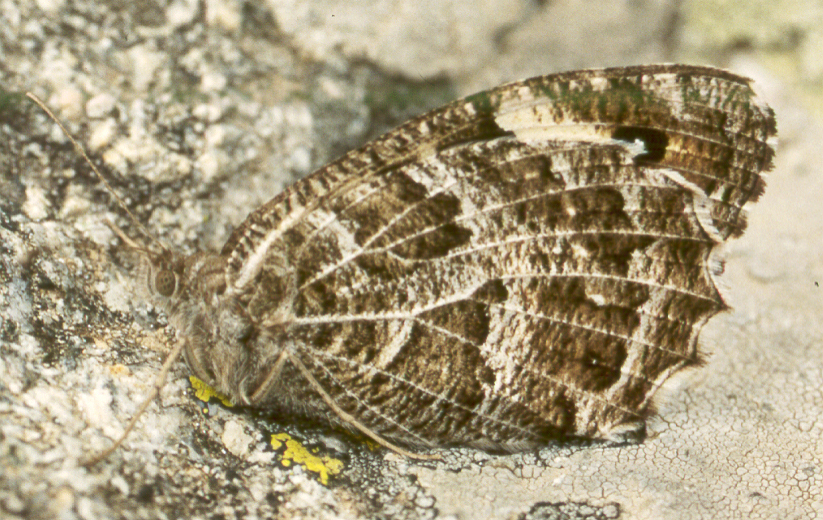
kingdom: Animalia
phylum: Arthropoda
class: Insecta
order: Lepidoptera
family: Nymphalidae
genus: Satyrus
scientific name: Satyrus Chazara heydenreichi
